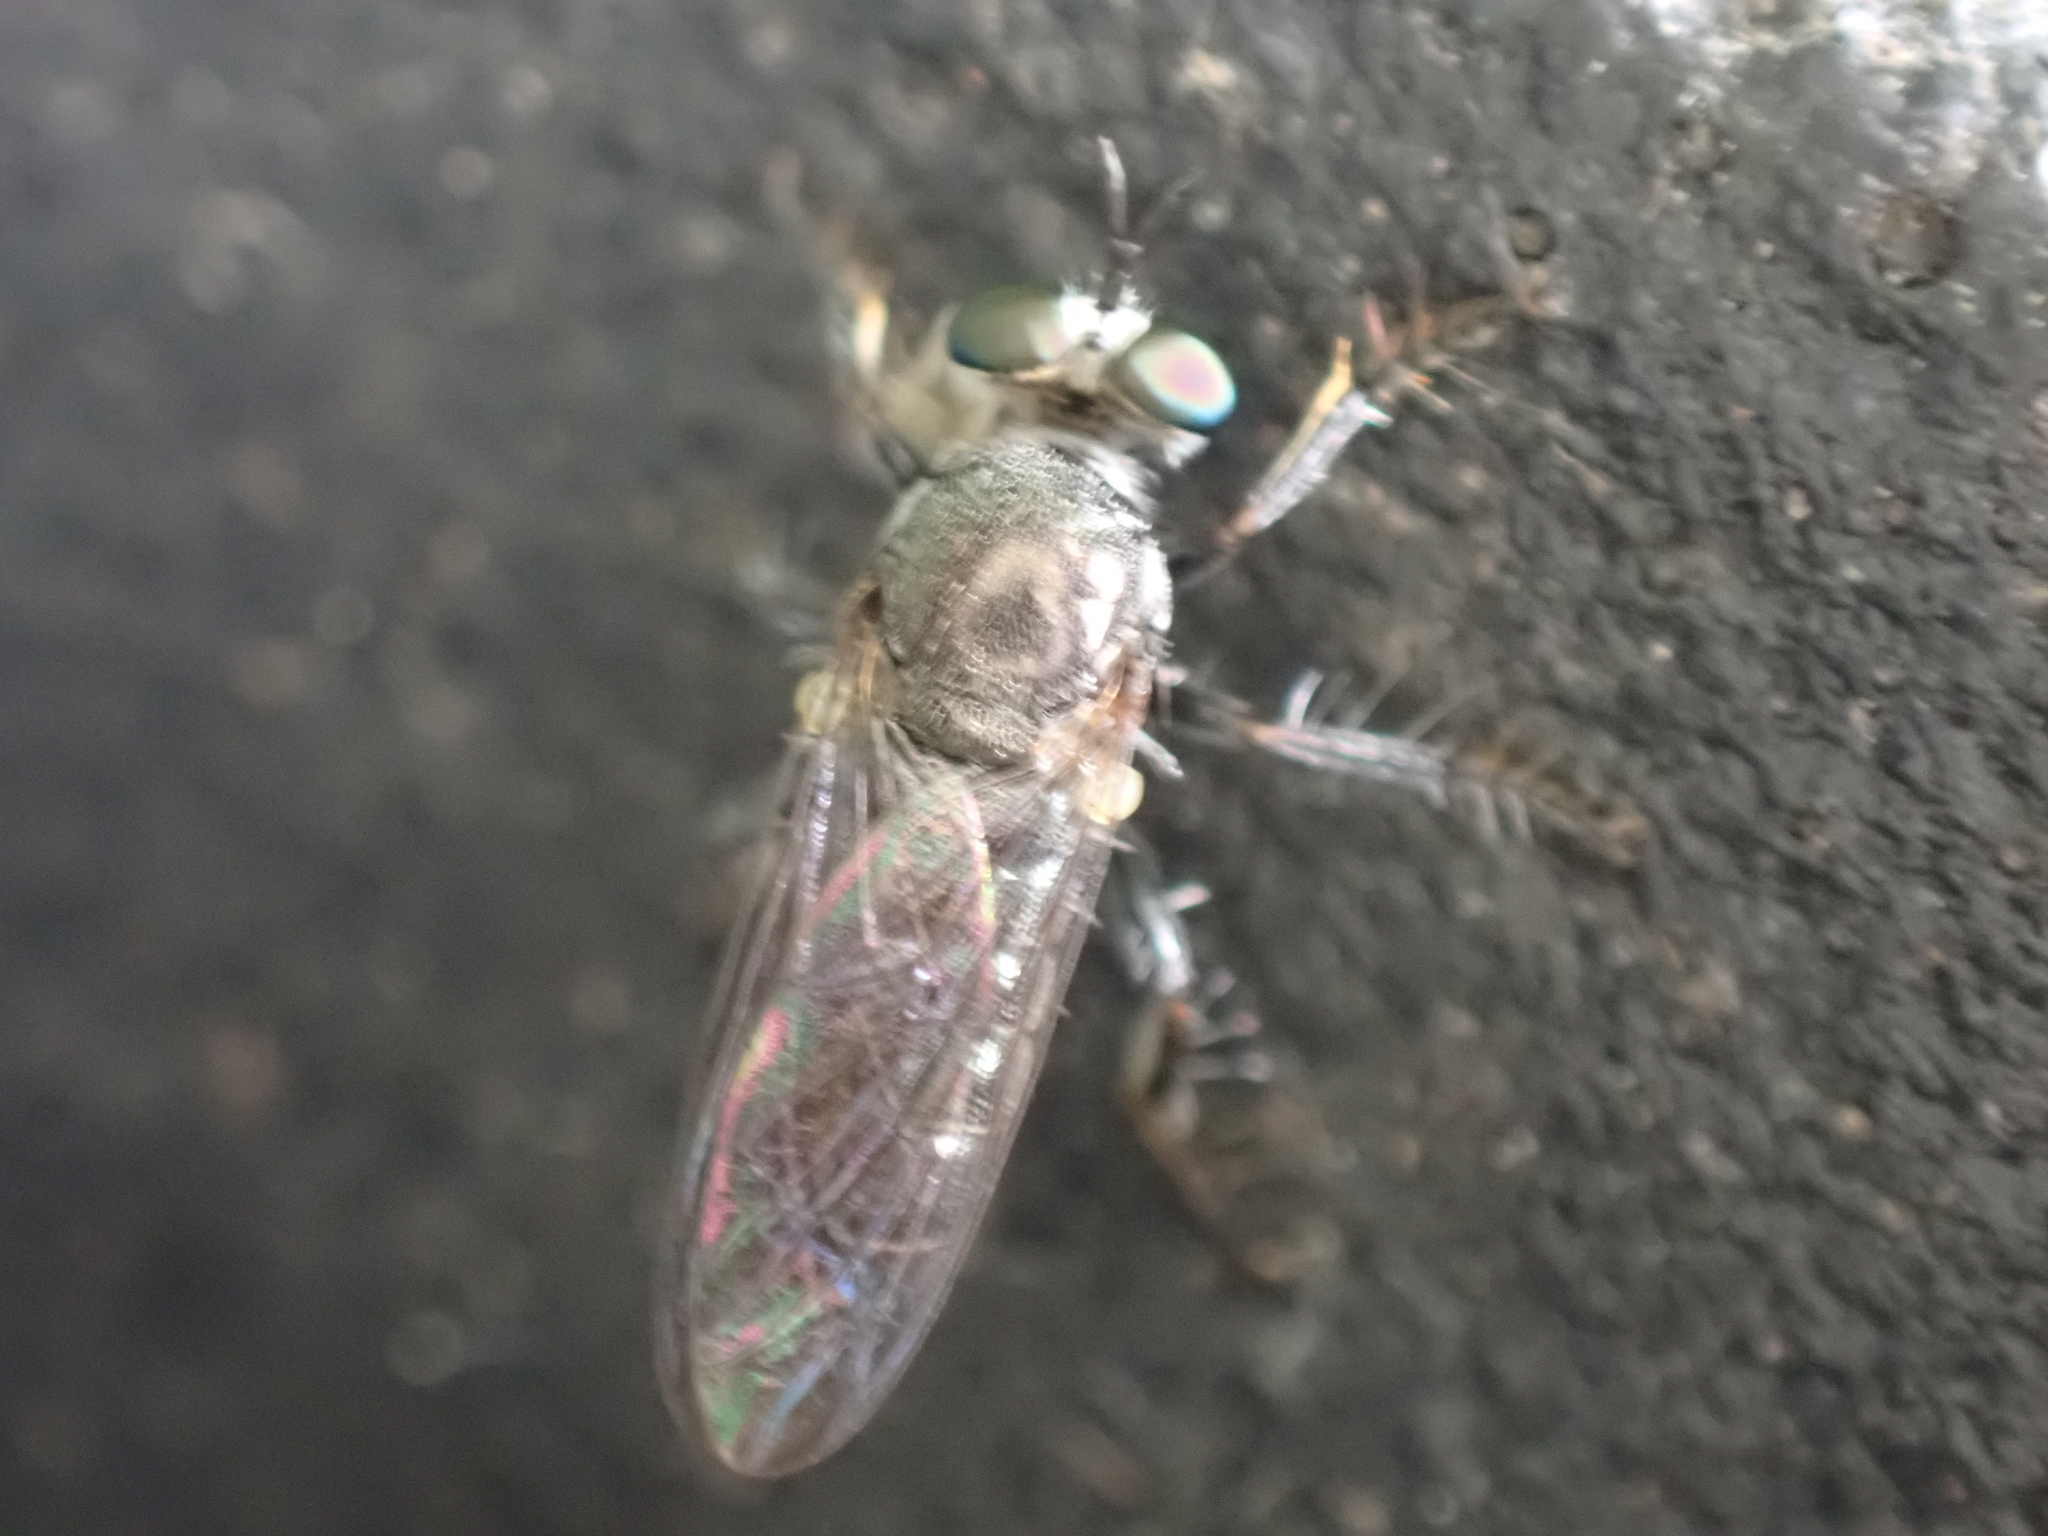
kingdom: Animalia
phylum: Arthropoda
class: Insecta
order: Diptera
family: Asilidae
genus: Atomosia
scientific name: Atomosia puella
